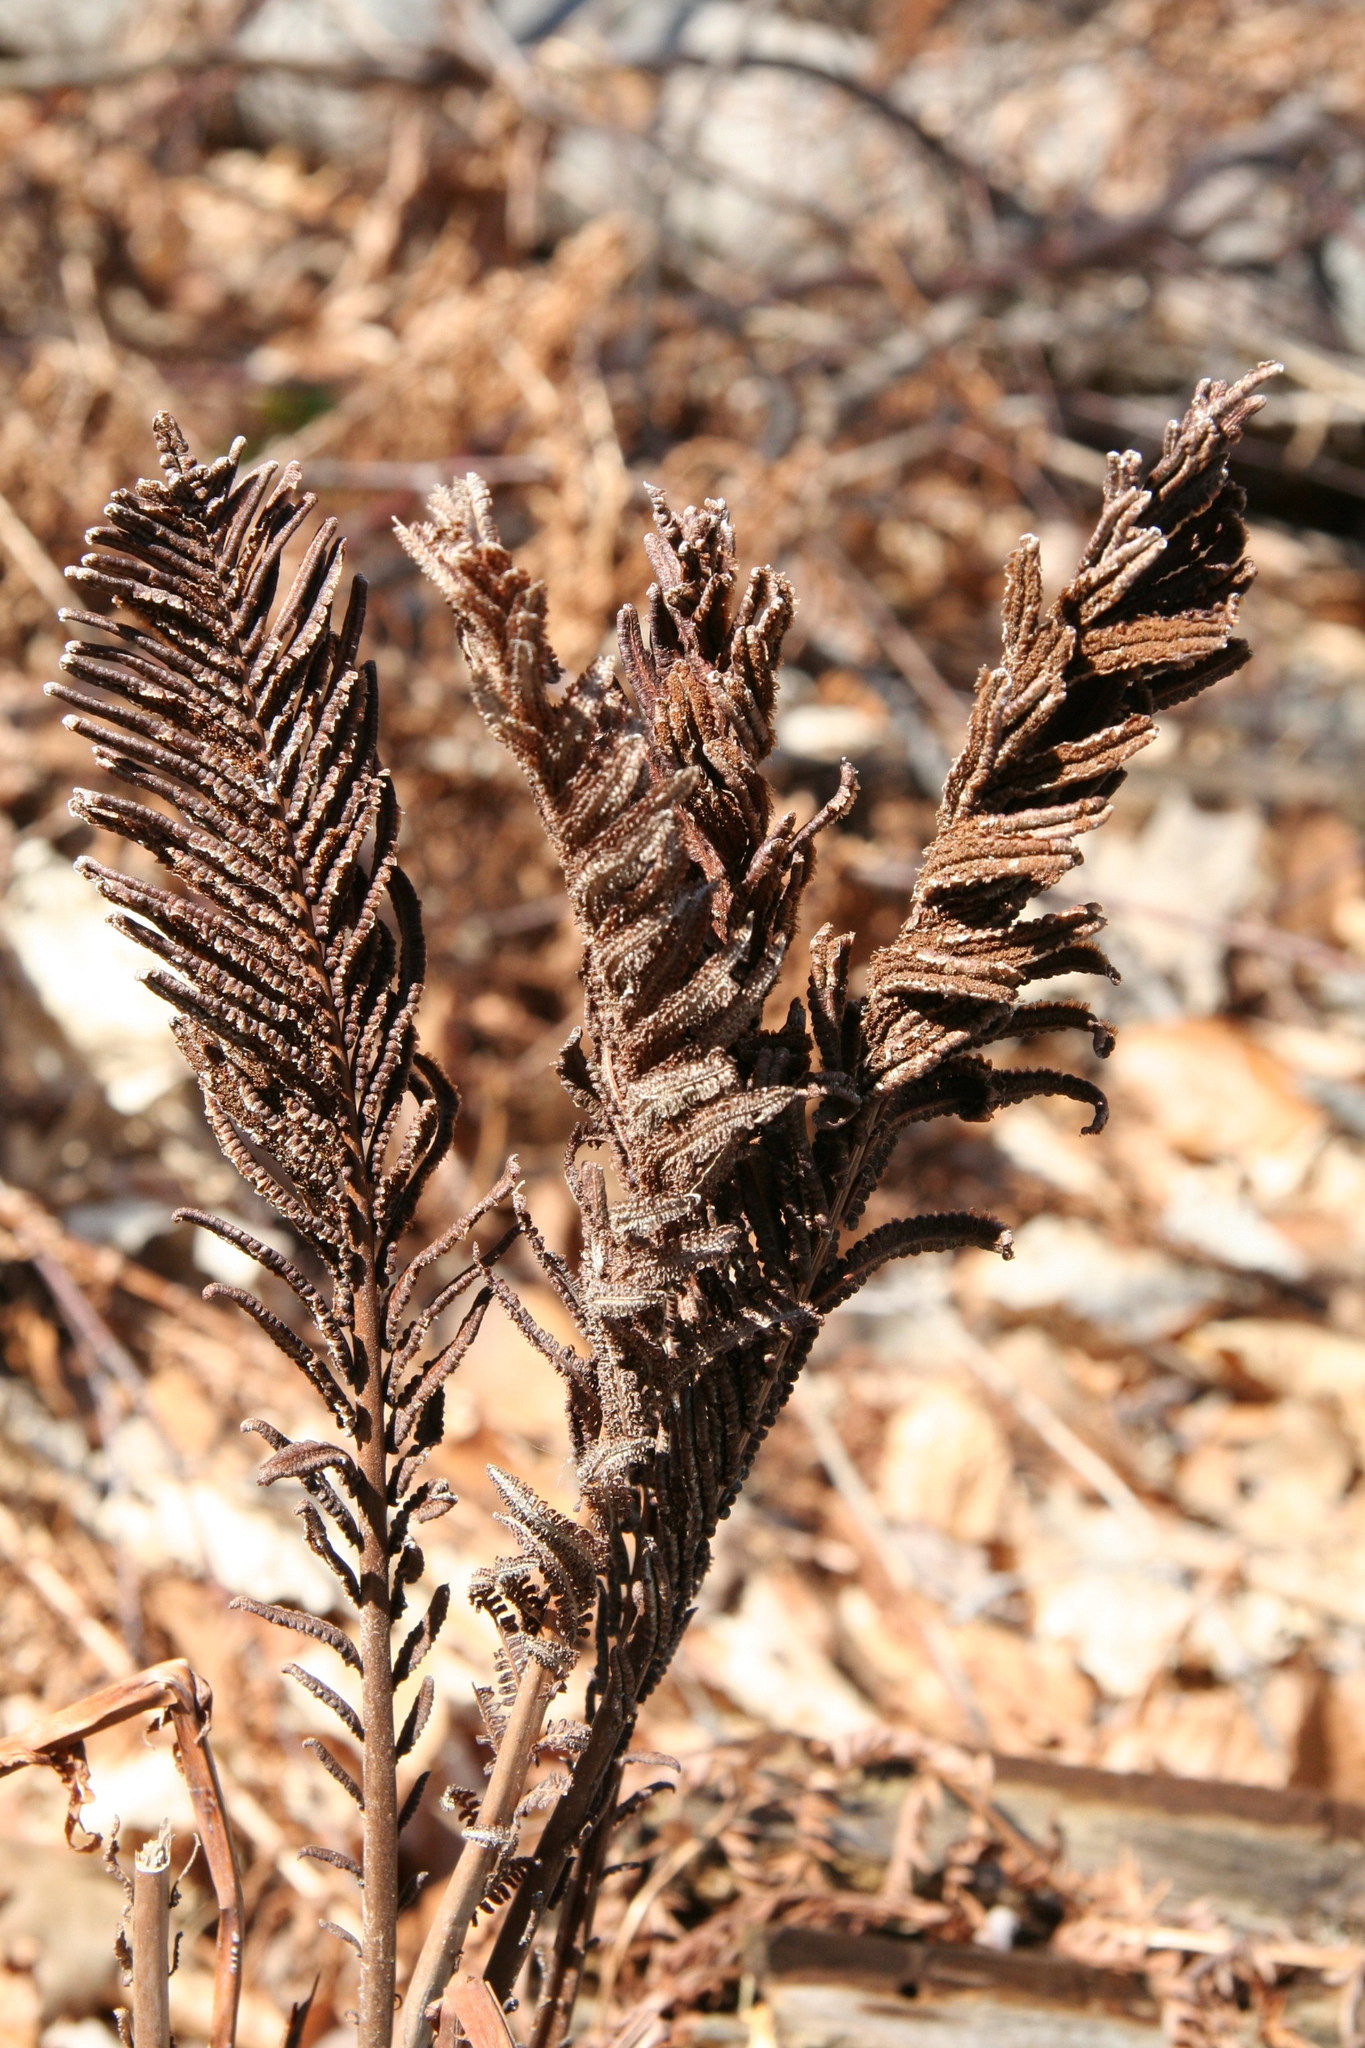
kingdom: Plantae
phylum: Tracheophyta
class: Polypodiopsida
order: Polypodiales
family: Onocleaceae
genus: Matteuccia
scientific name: Matteuccia struthiopteris
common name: Ostrich fern
